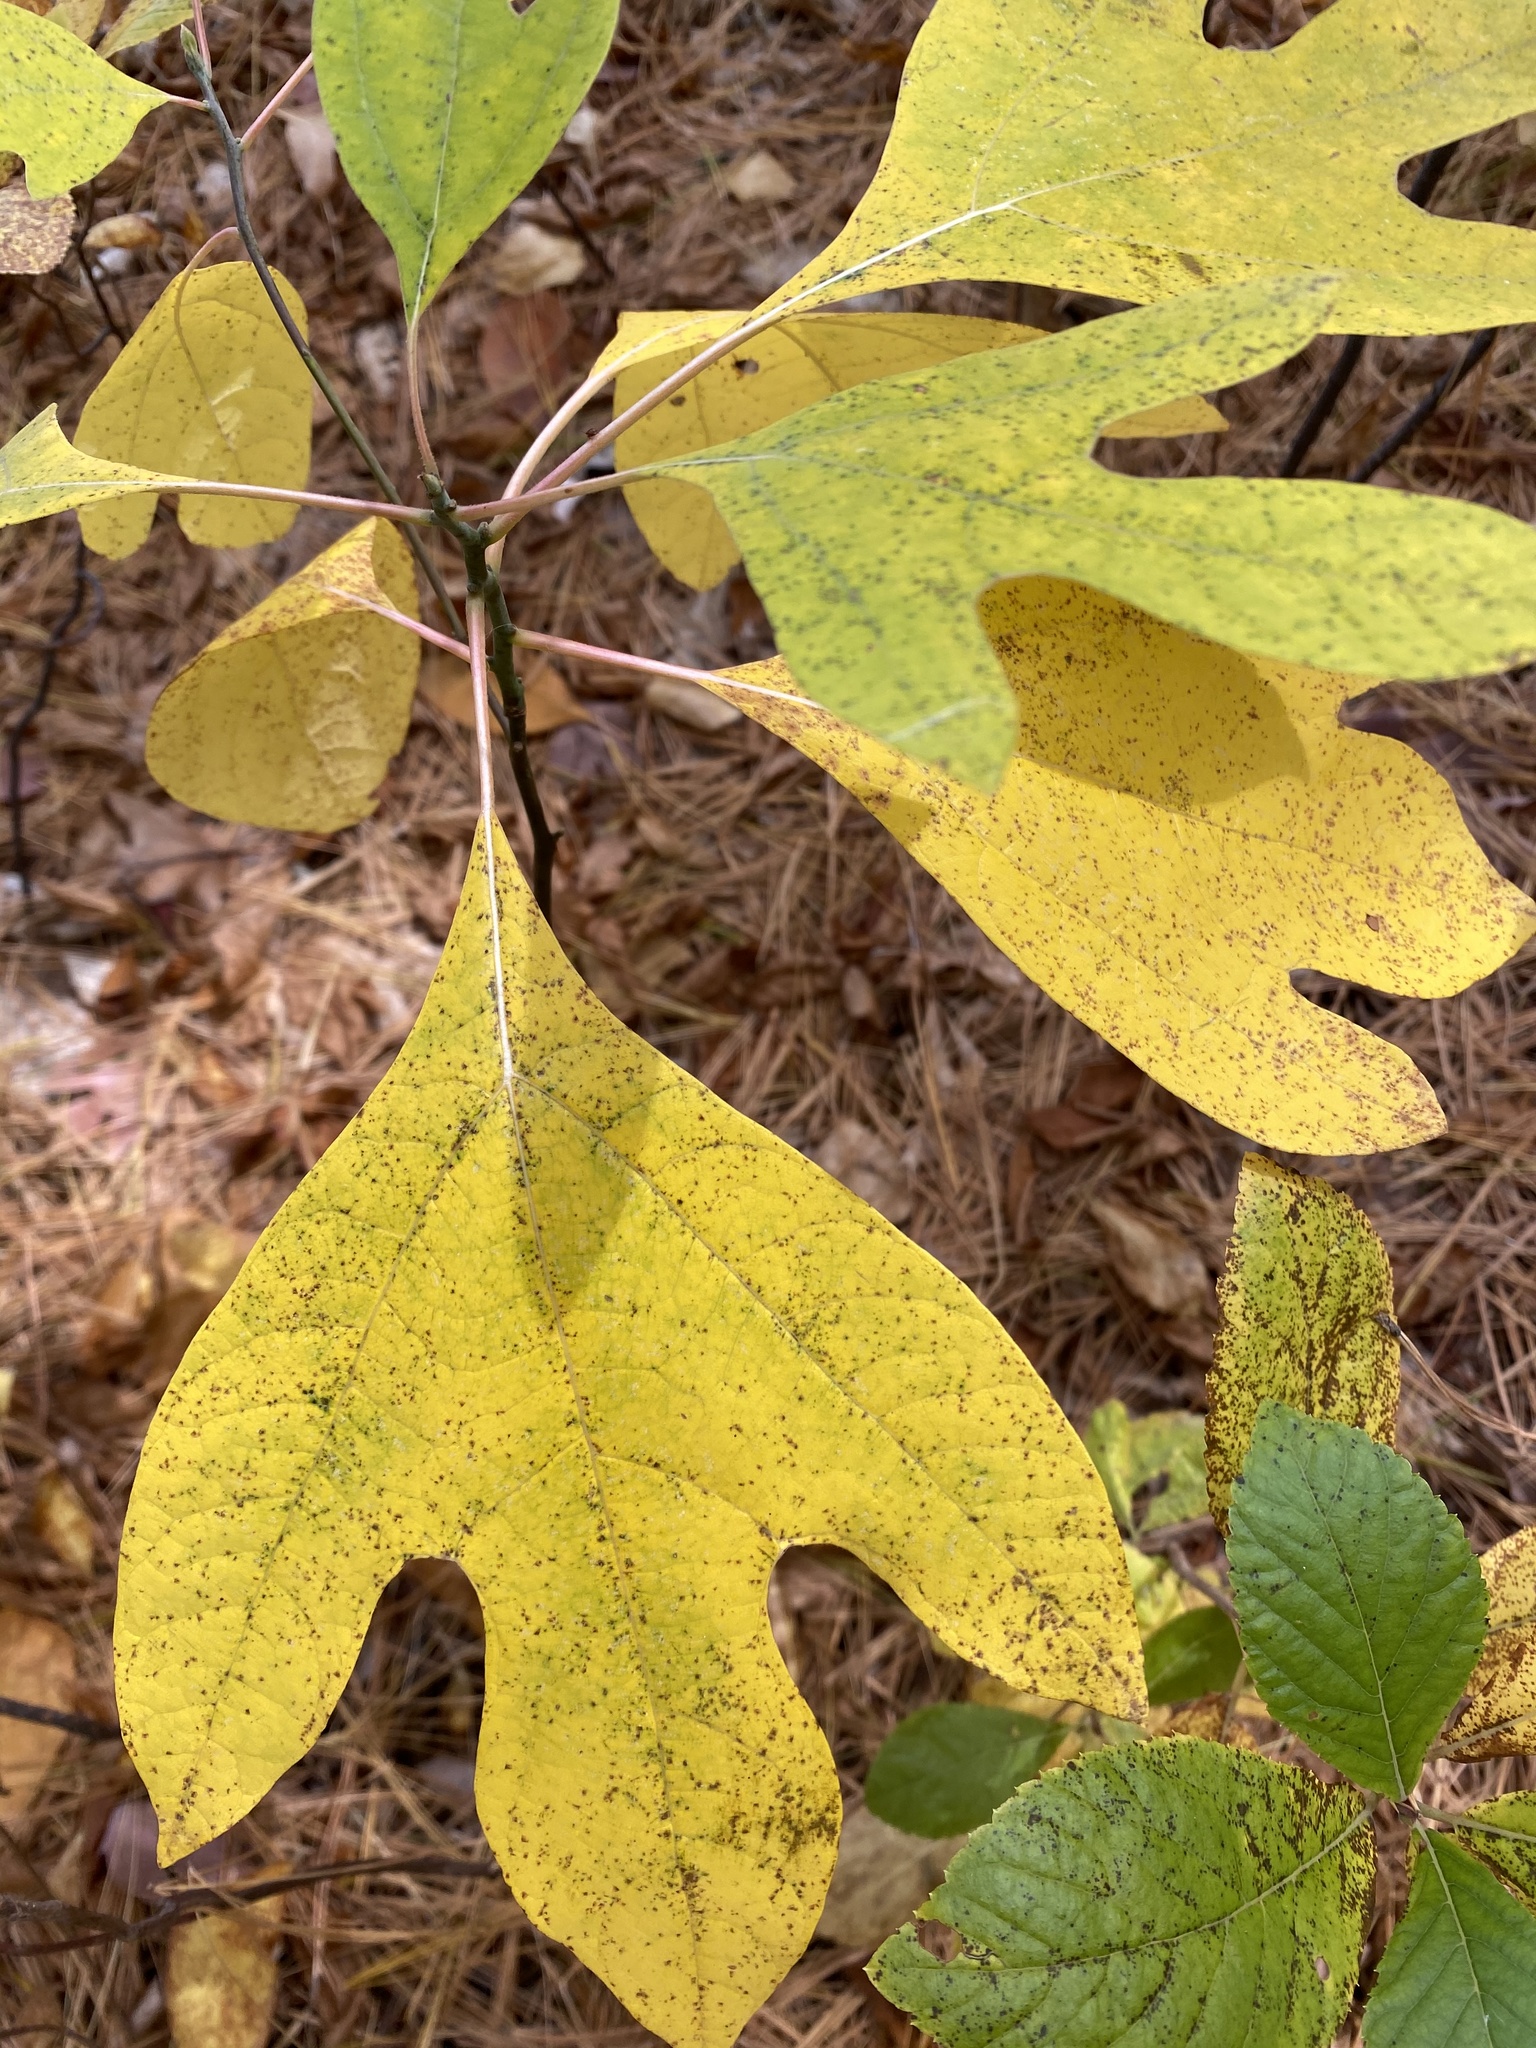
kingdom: Plantae
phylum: Tracheophyta
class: Magnoliopsida
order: Laurales
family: Lauraceae
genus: Sassafras
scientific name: Sassafras albidum
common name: Sassafras
